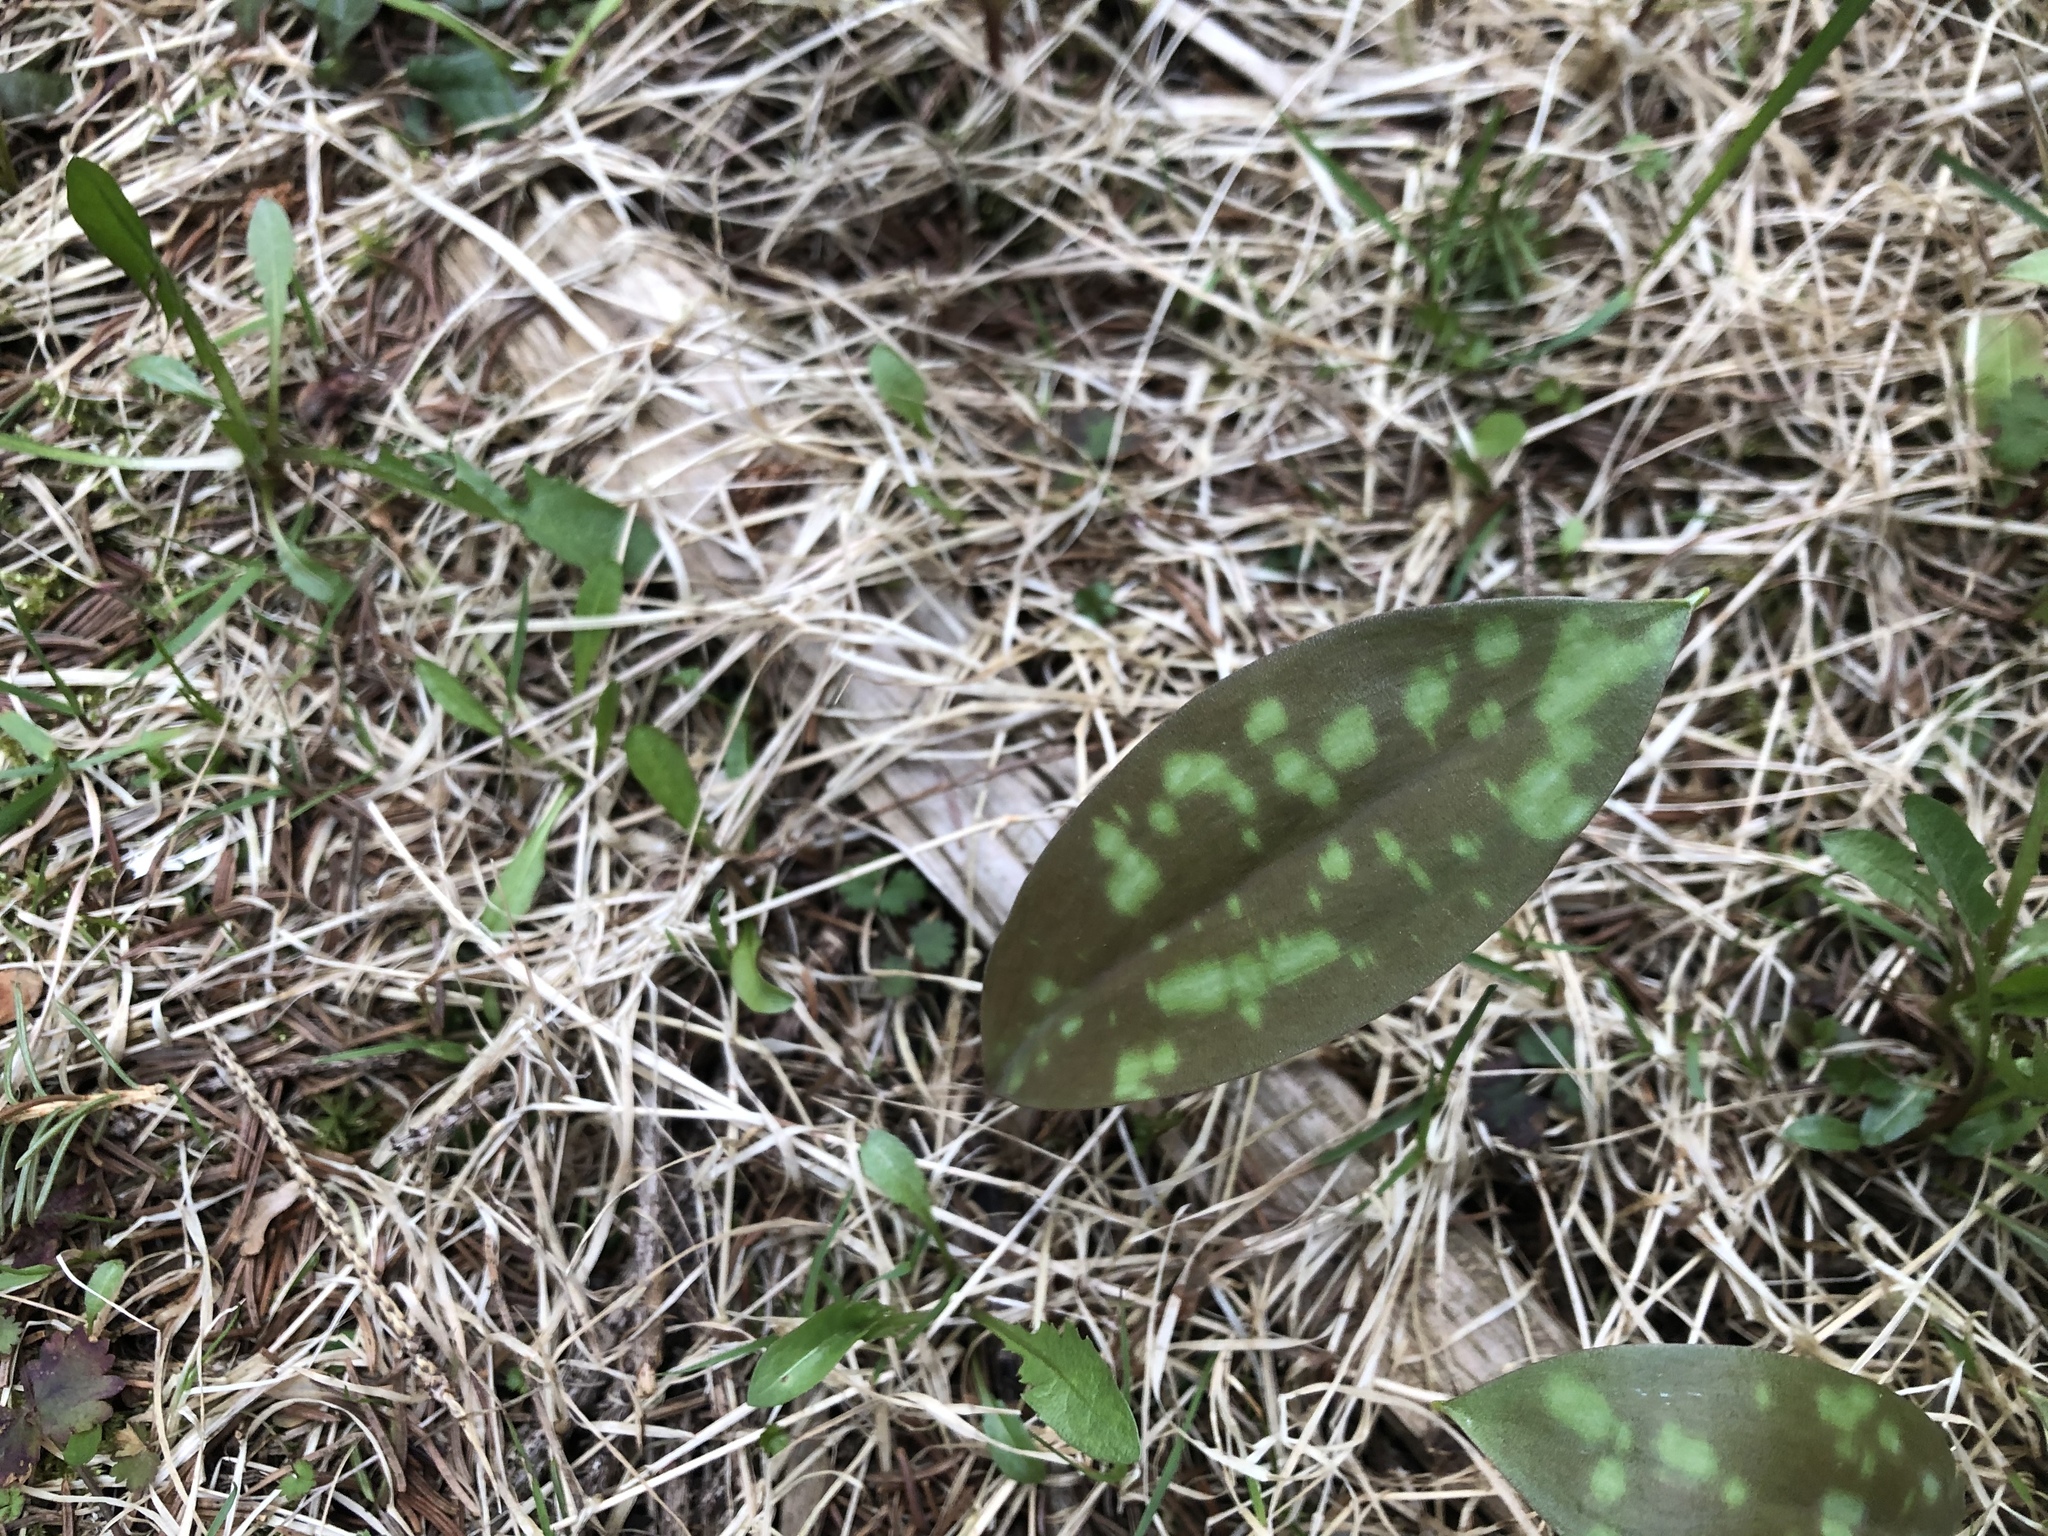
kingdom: Plantae
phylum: Tracheophyta
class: Liliopsida
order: Liliales
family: Liliaceae
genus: Erythronium
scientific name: Erythronium americanum
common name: Yellow adder's-tongue
